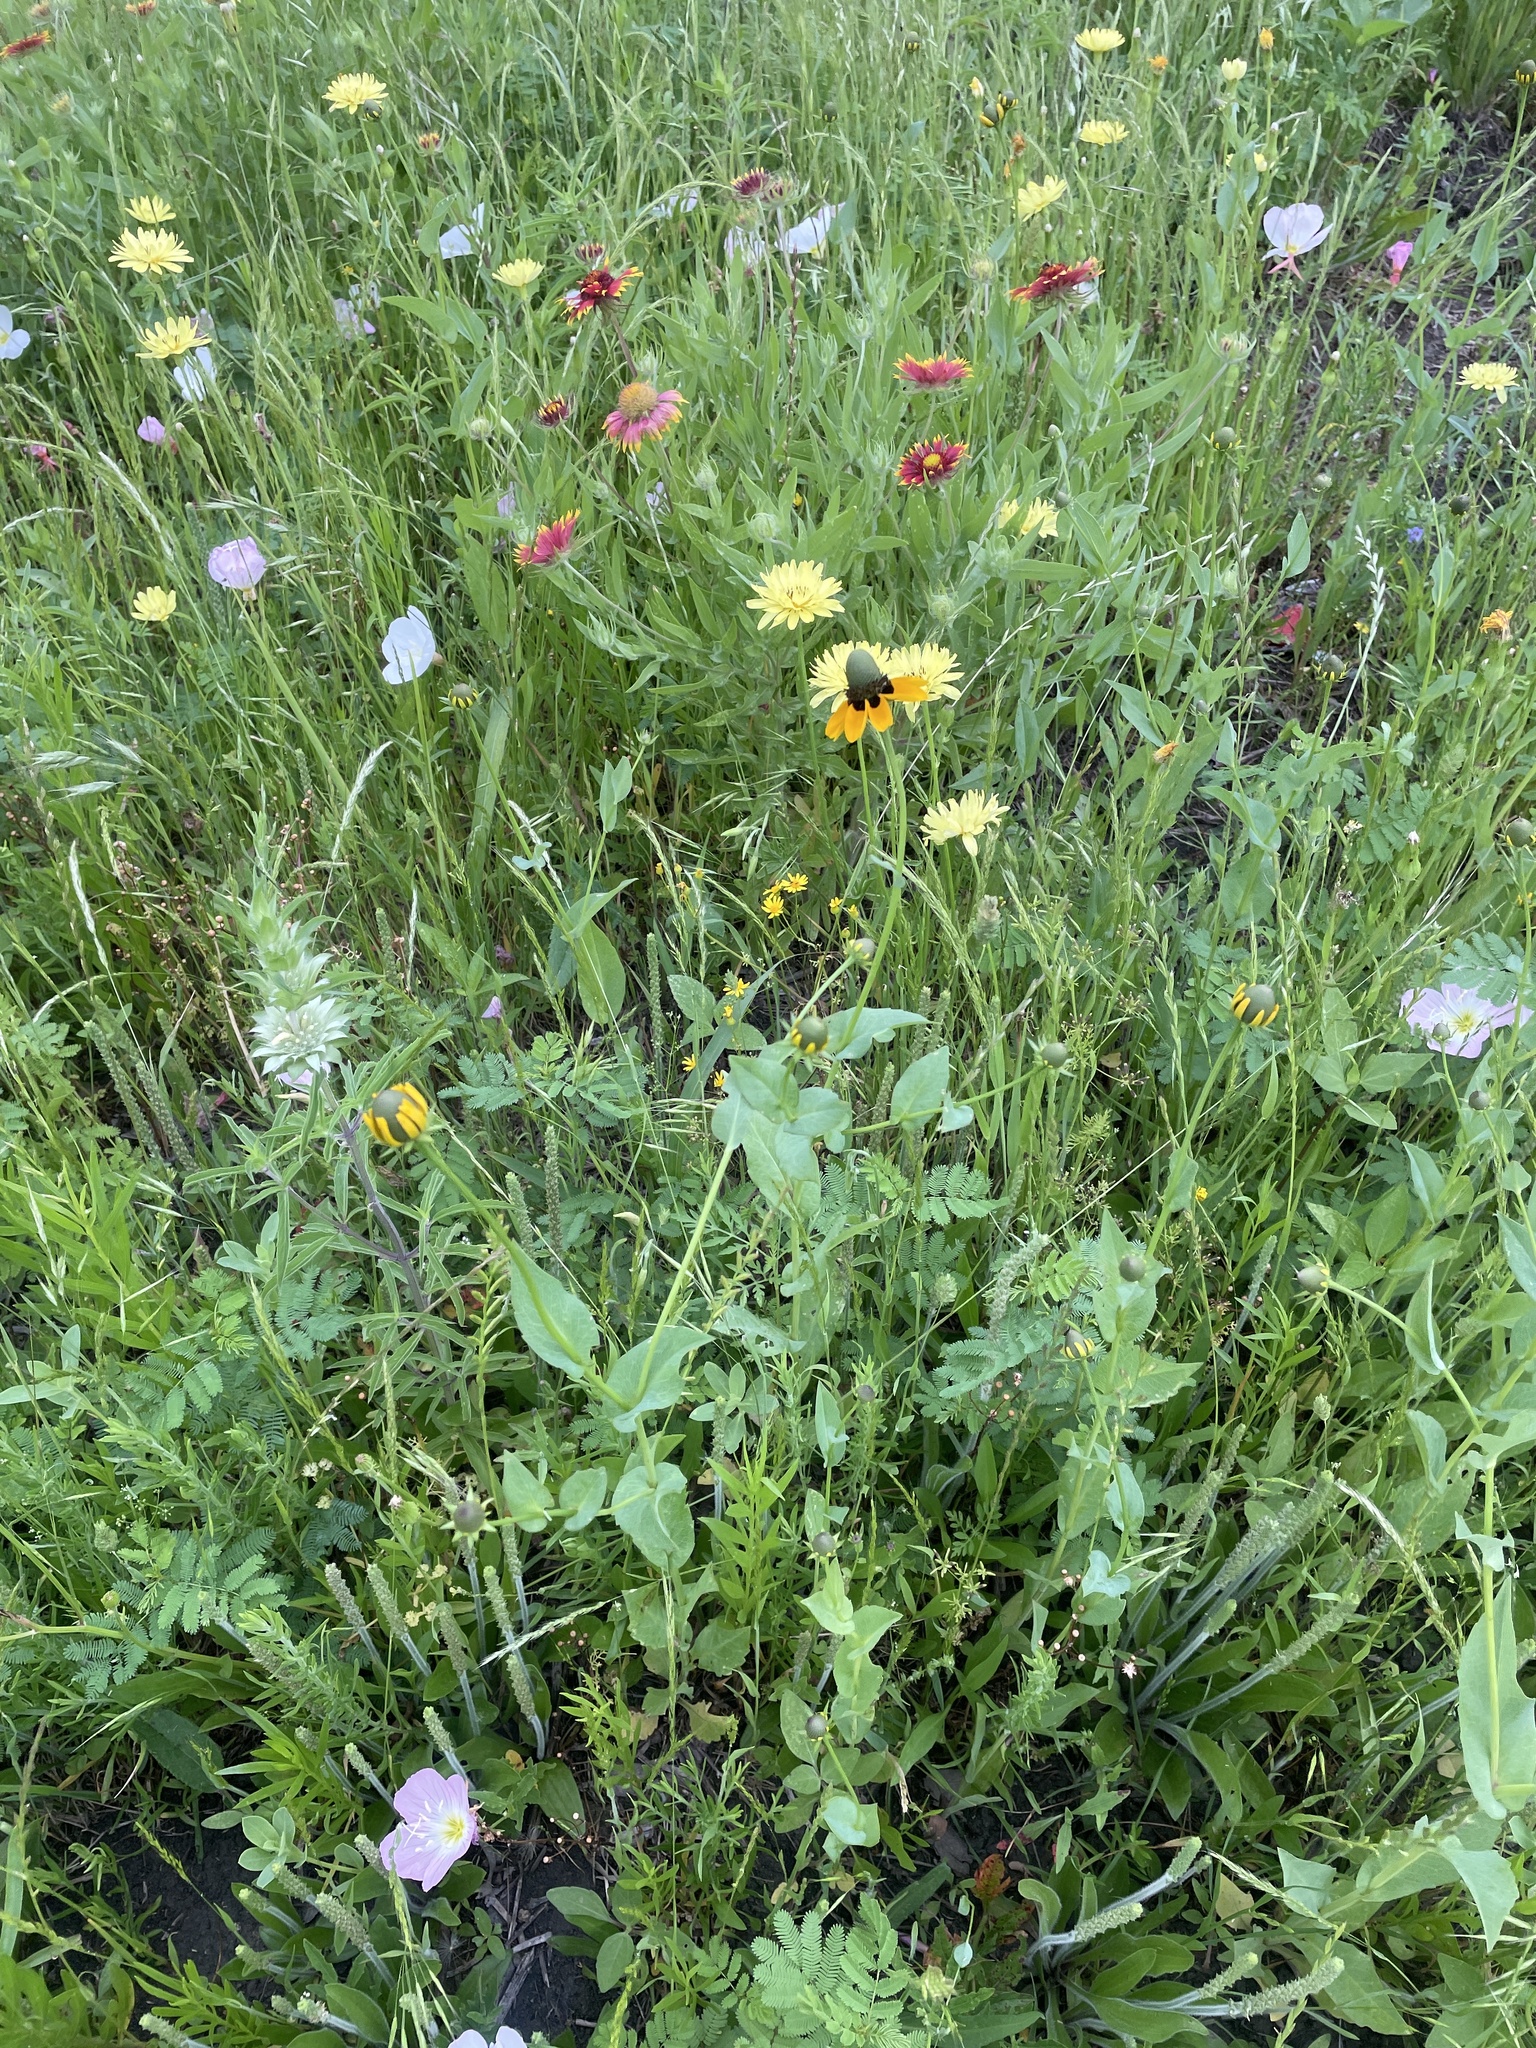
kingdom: Plantae
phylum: Tracheophyta
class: Magnoliopsida
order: Asterales
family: Asteraceae
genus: Rudbeckia
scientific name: Rudbeckia amplexicaulis
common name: Clasping-leaf coneflower
